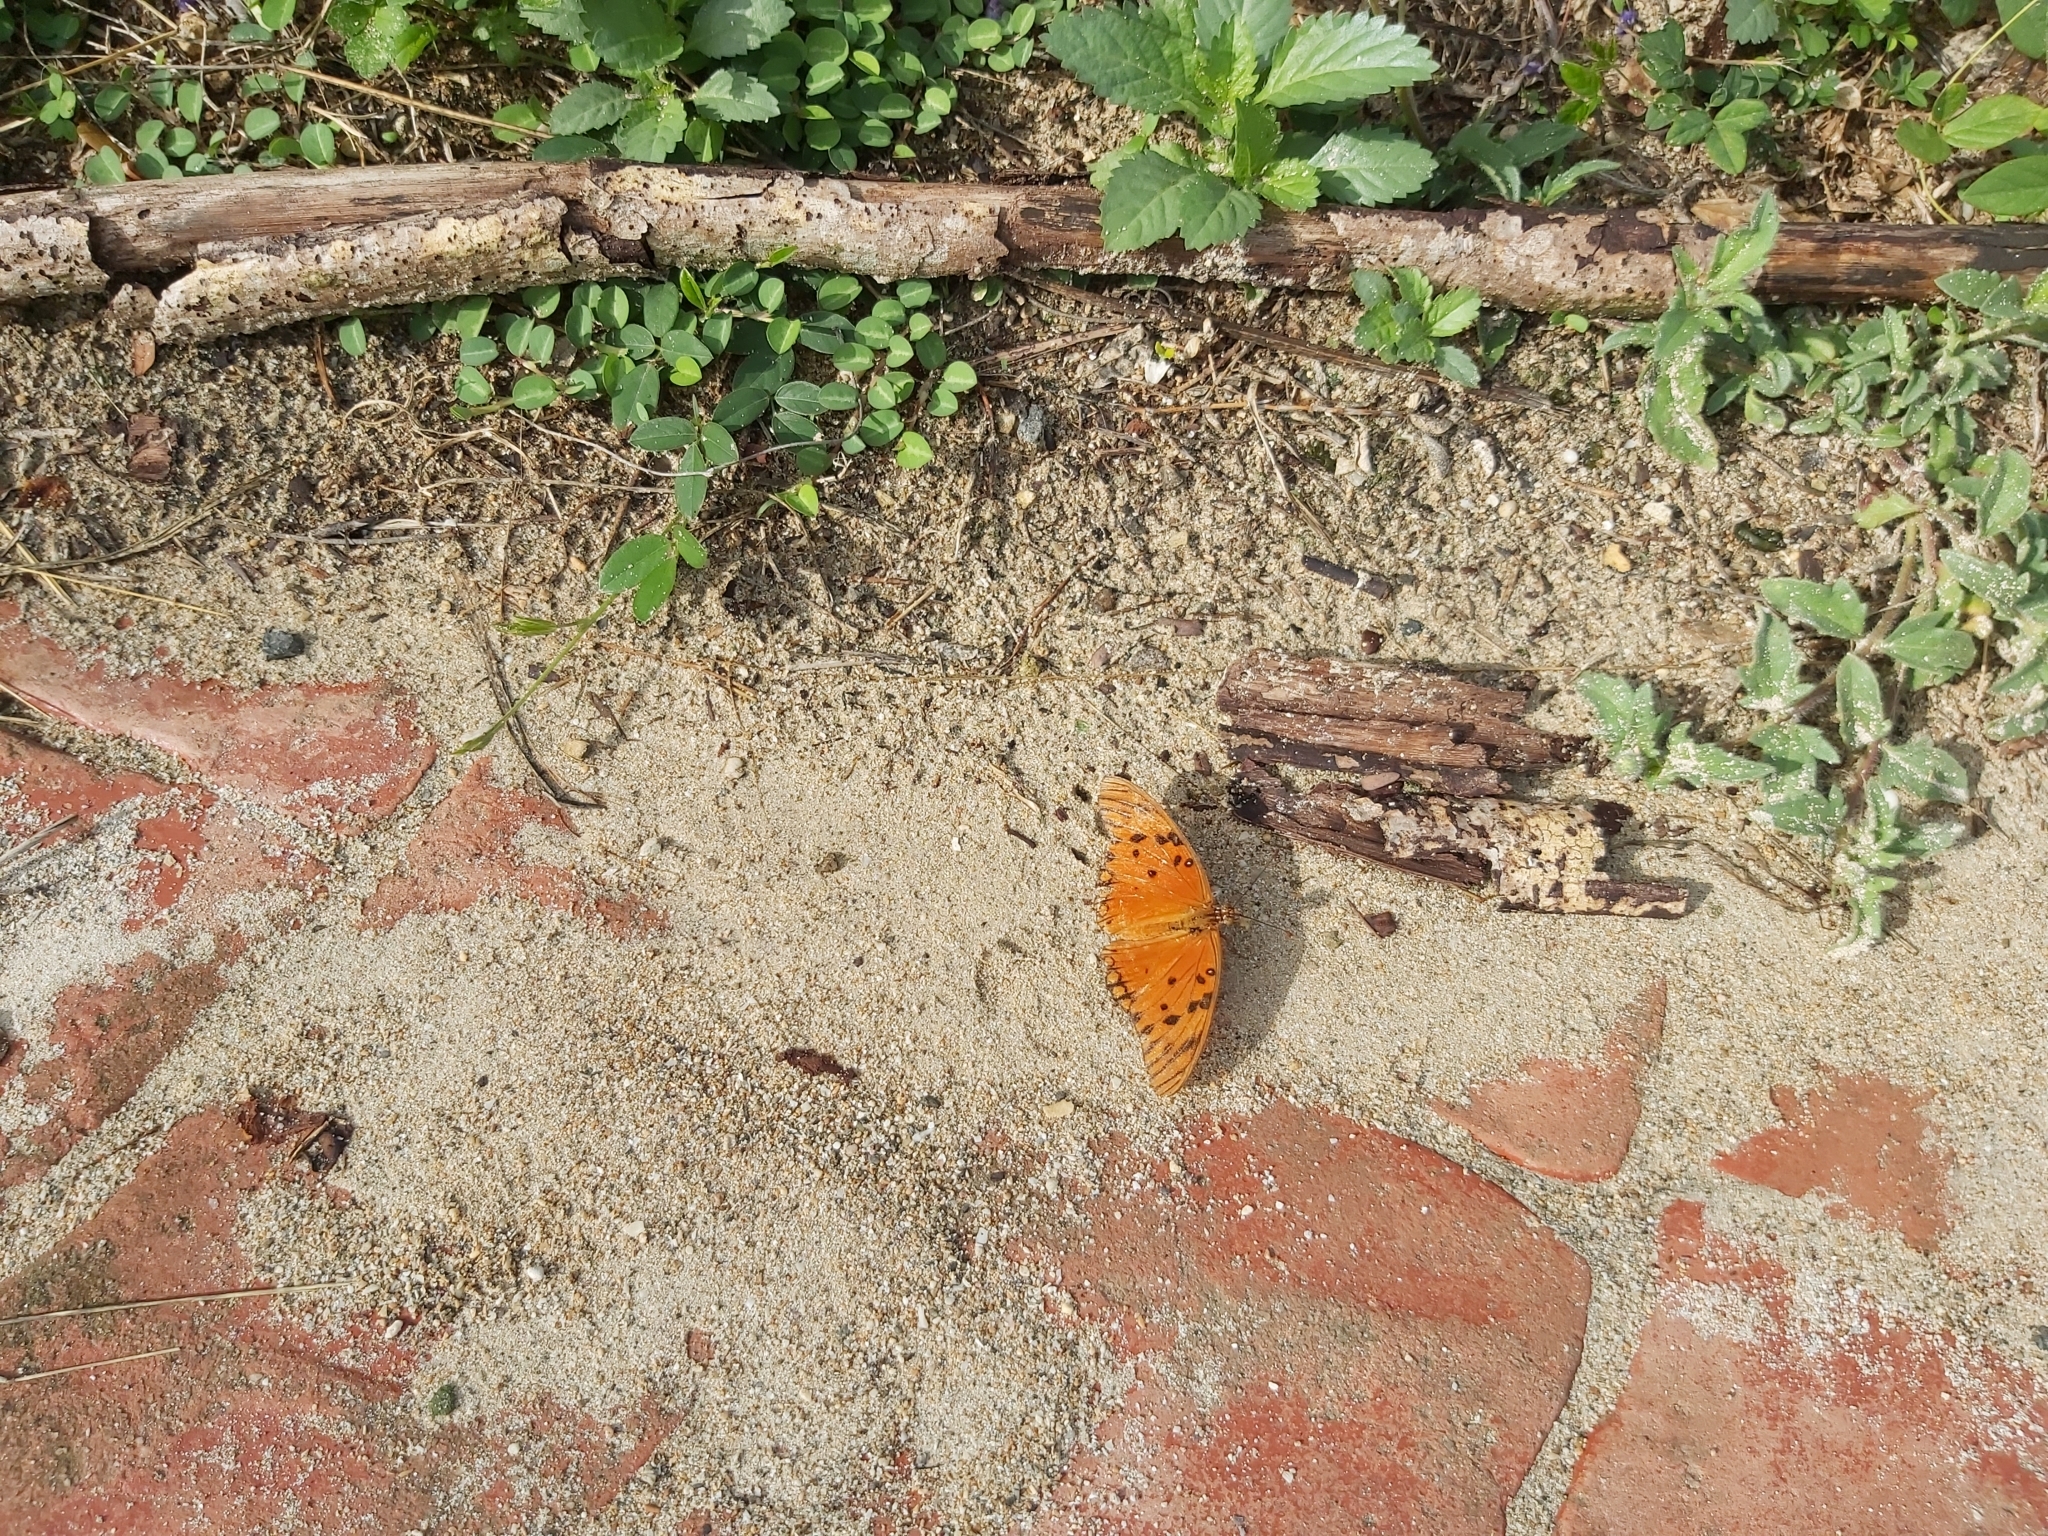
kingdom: Animalia
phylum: Arthropoda
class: Insecta
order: Lepidoptera
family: Nymphalidae
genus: Dione
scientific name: Dione vanillae
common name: Gulf fritillary
